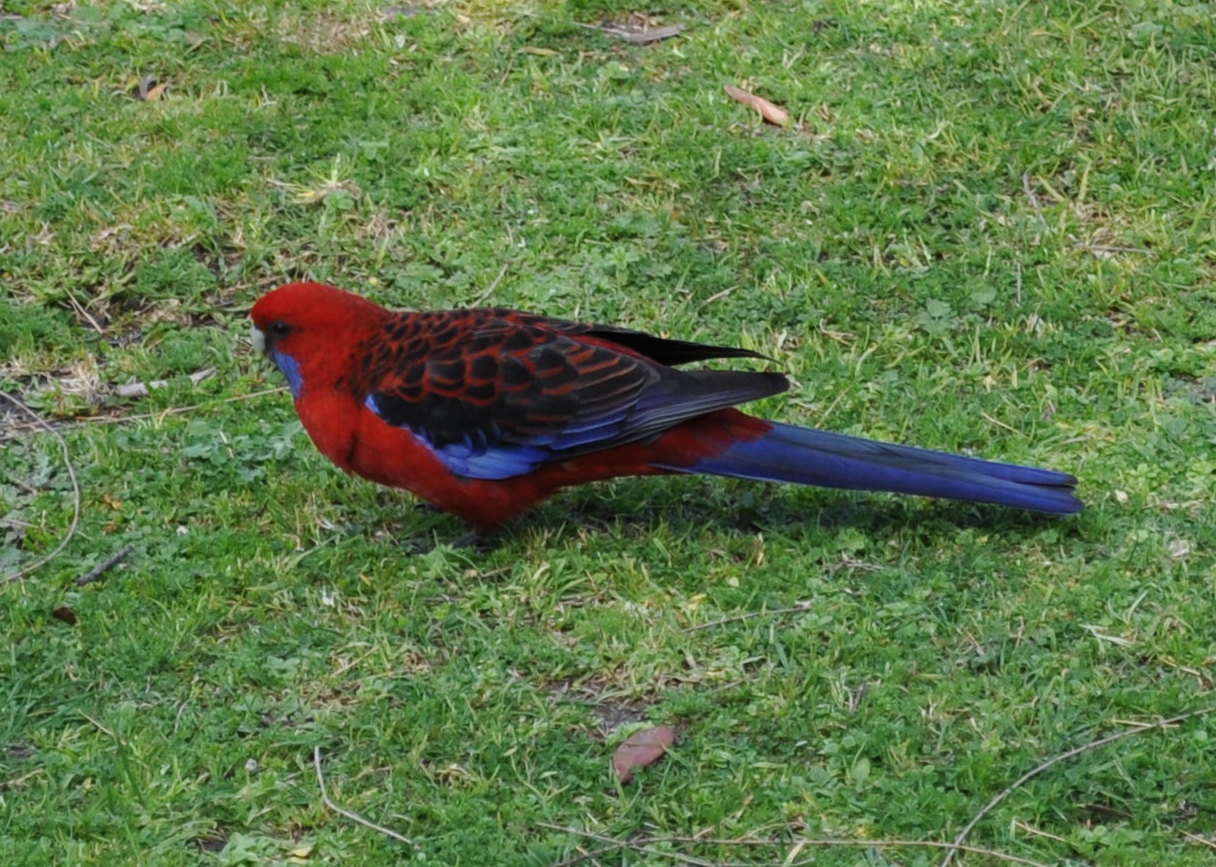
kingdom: Animalia
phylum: Chordata
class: Aves
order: Psittaciformes
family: Psittacidae
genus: Platycercus
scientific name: Platycercus elegans
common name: Crimson rosella
